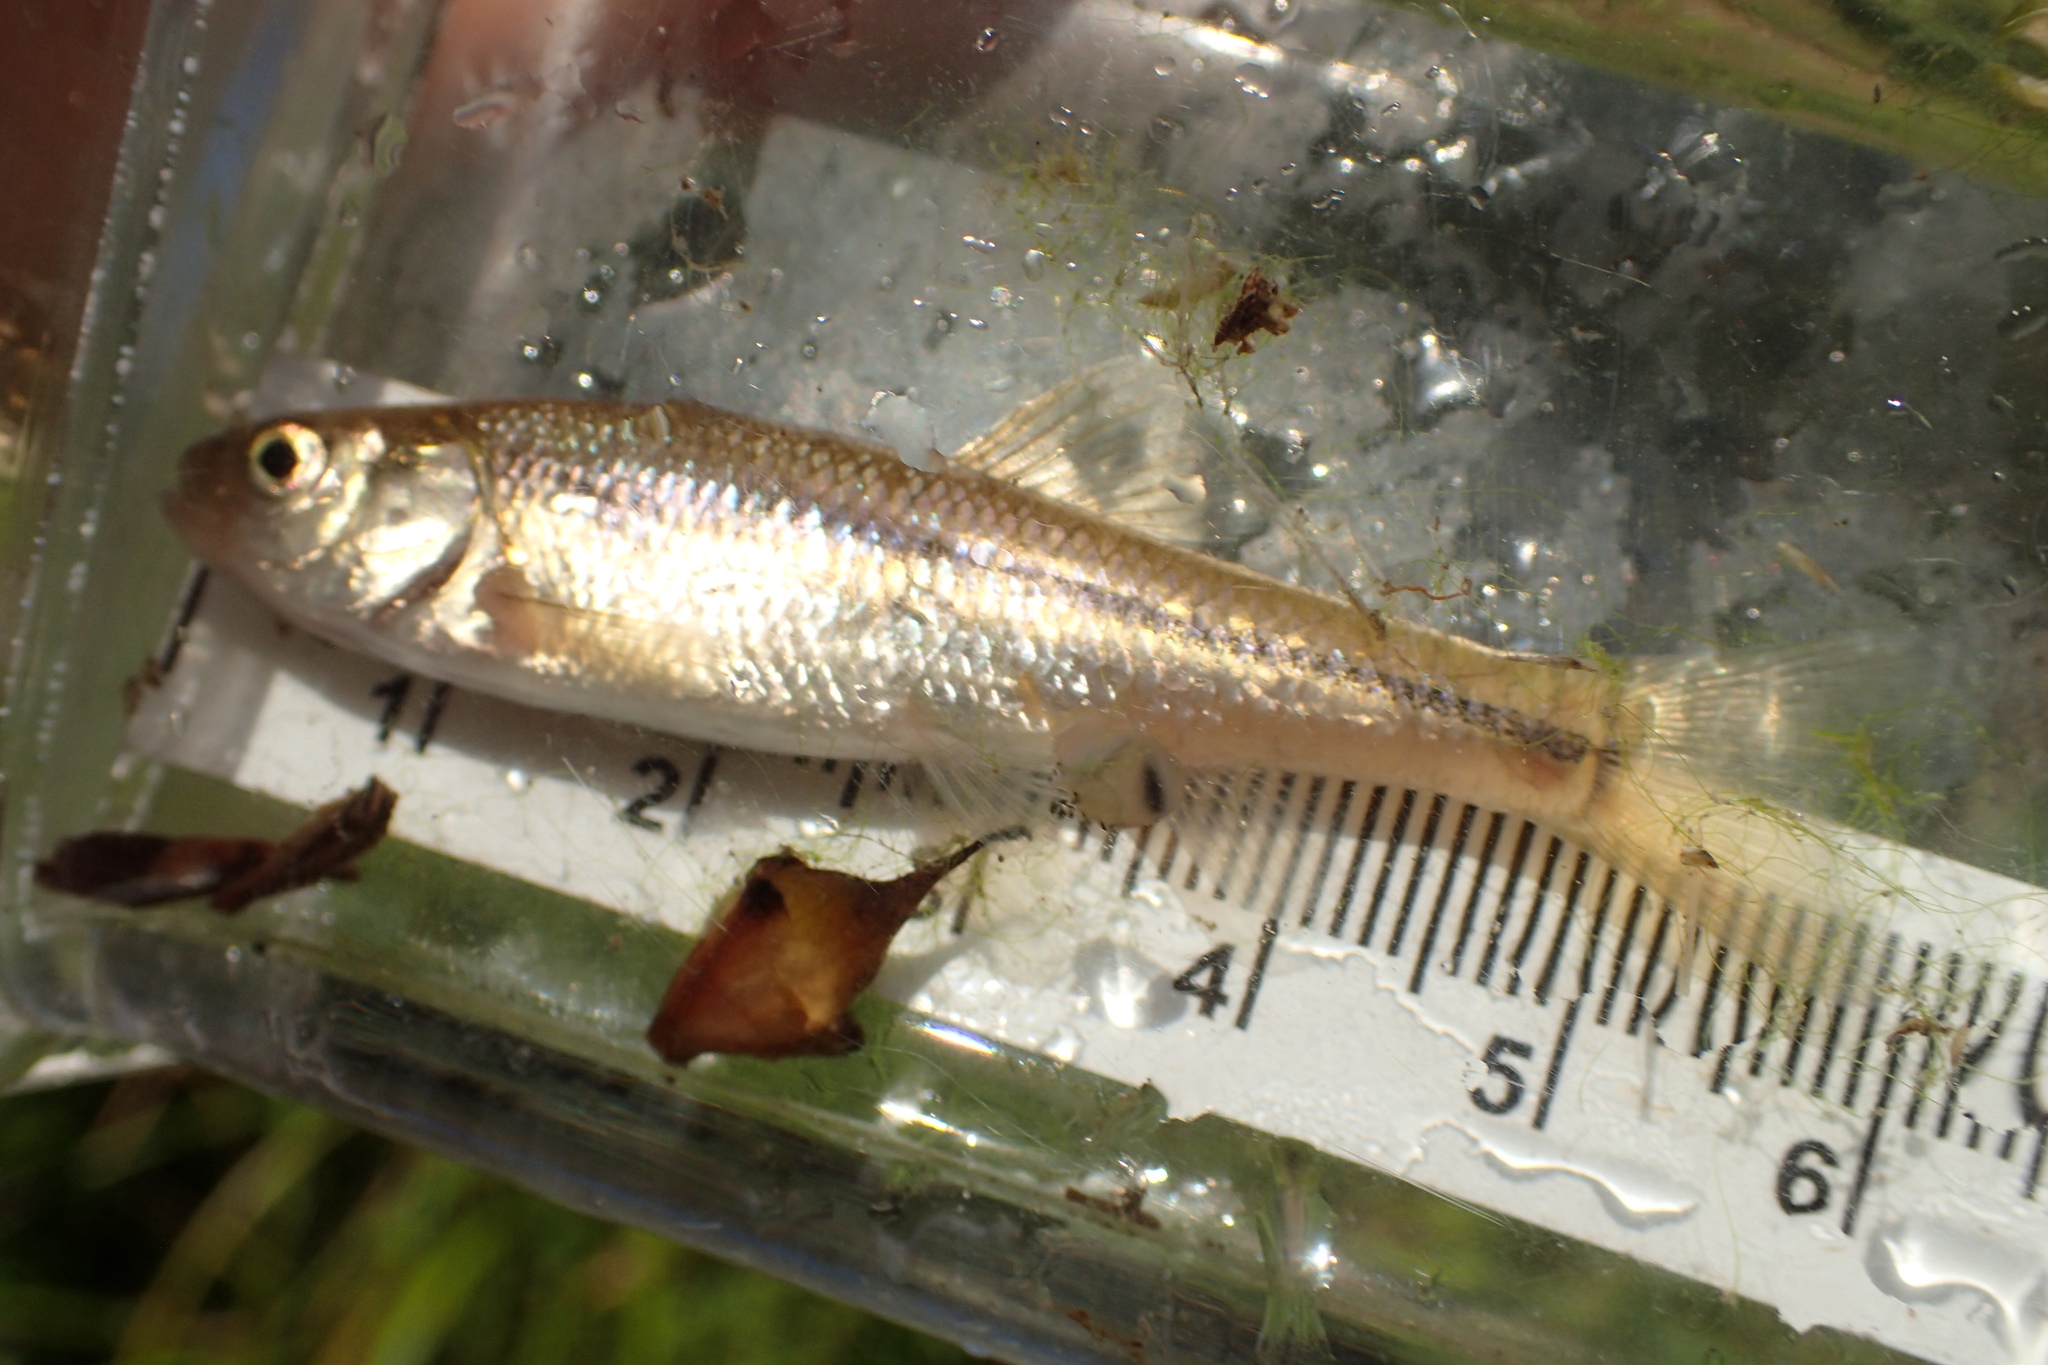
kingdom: Animalia
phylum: Chordata
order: Cypriniformes
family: Cyprinidae
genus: Luxilus
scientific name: Luxilus cornutus
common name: Common shiner
